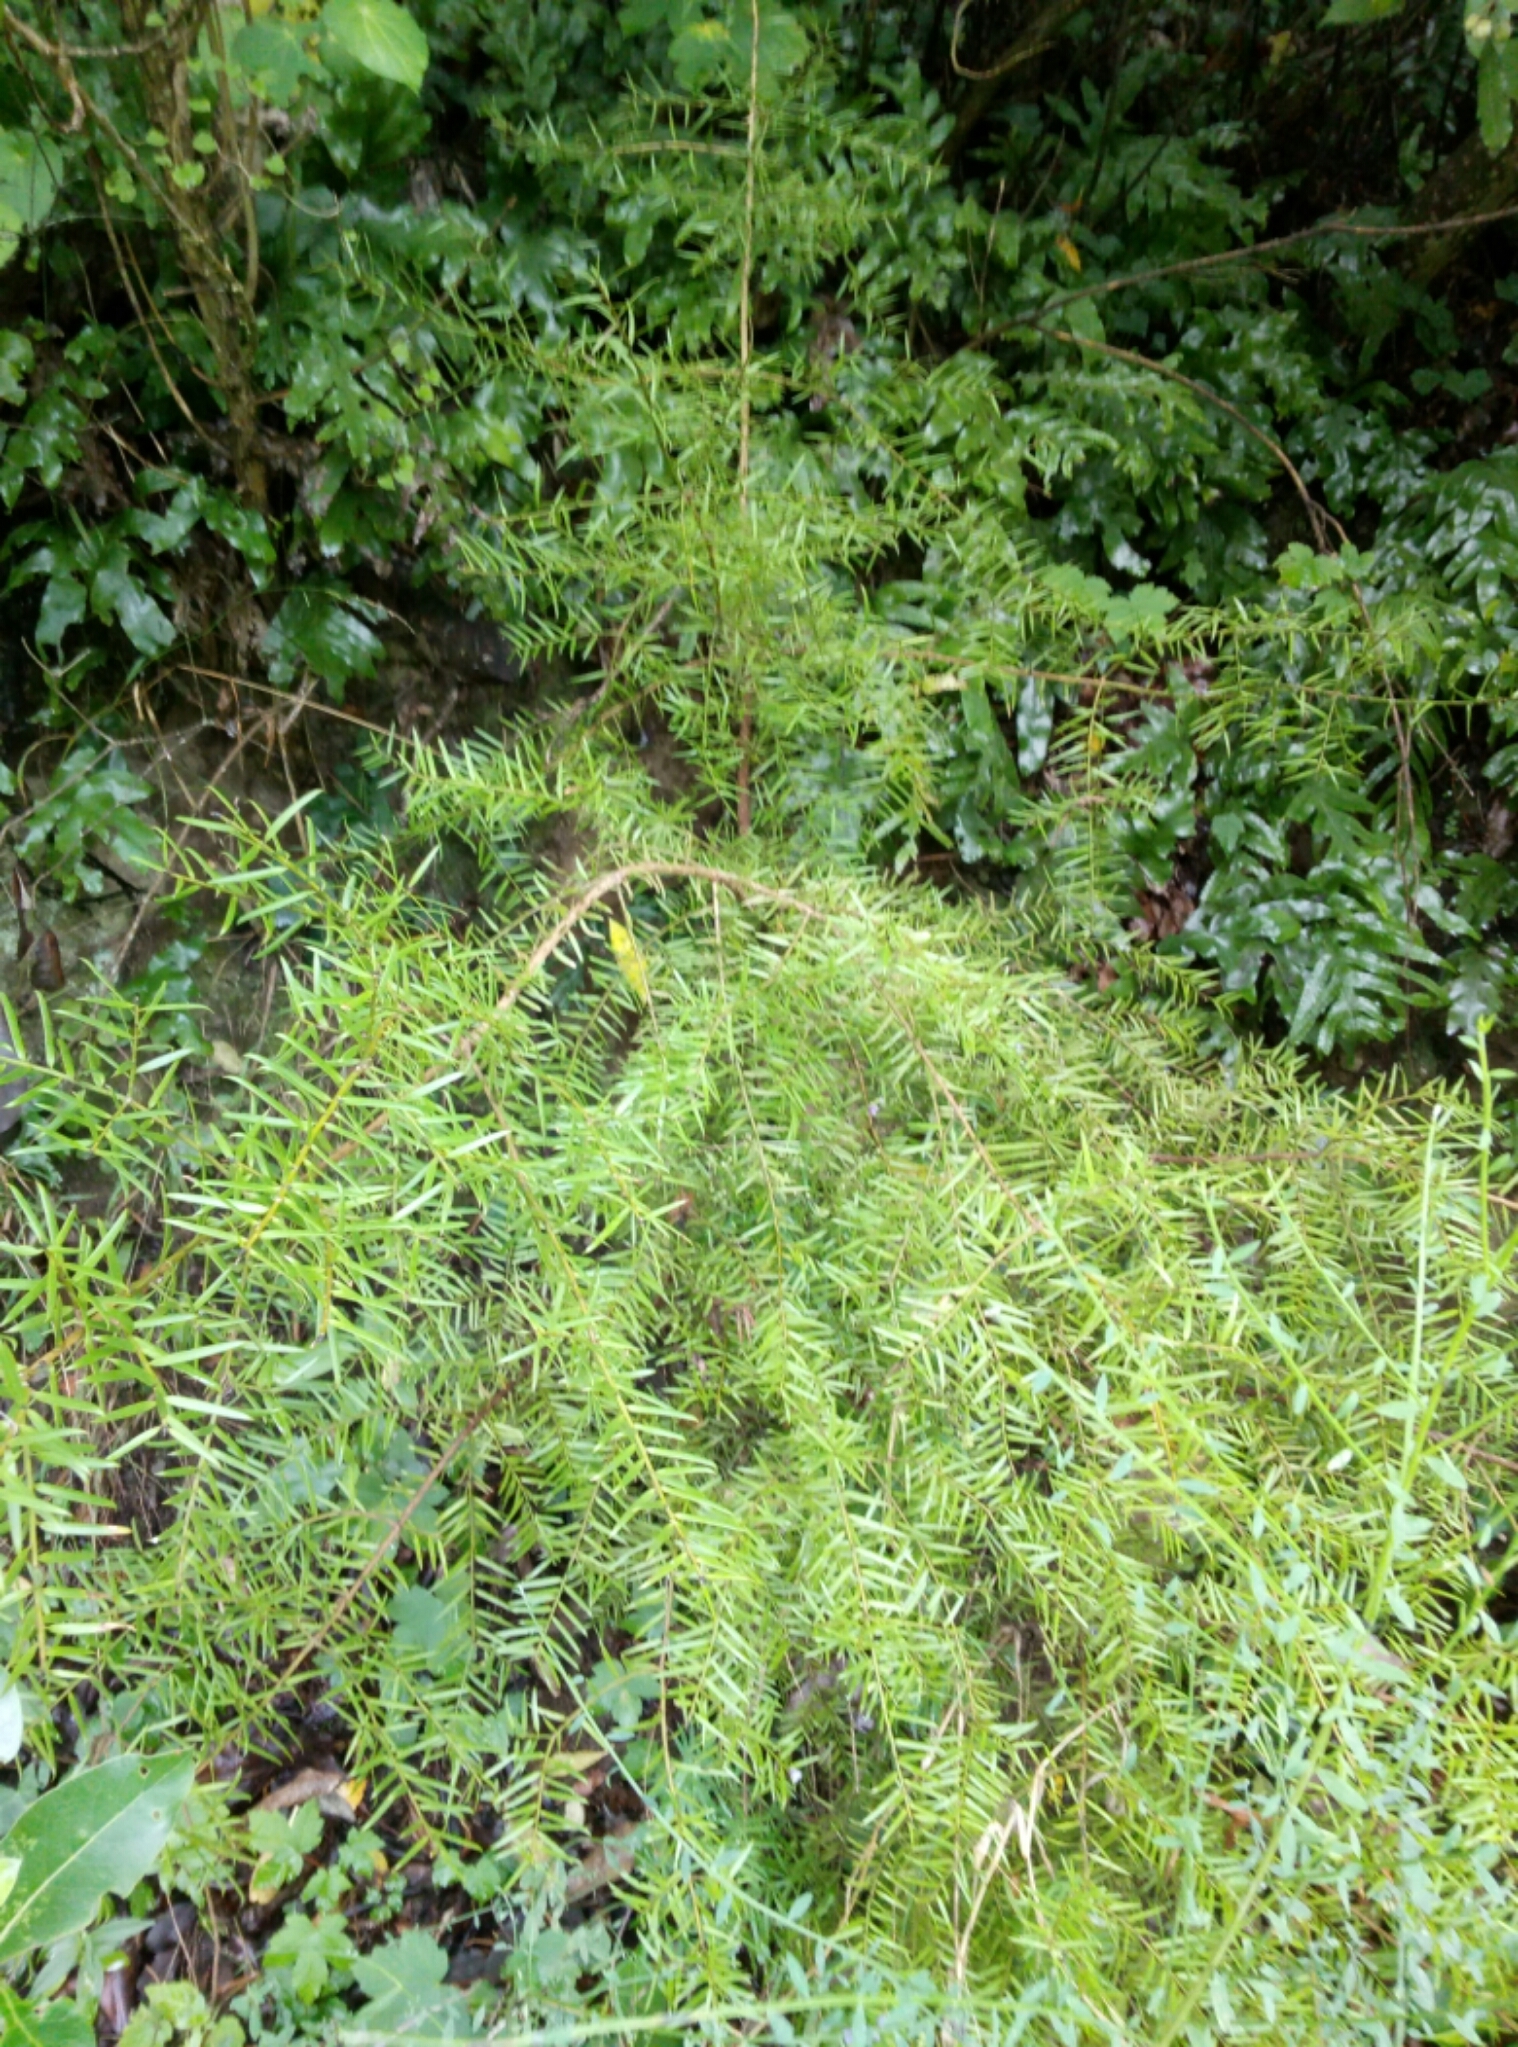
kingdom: Plantae
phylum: Tracheophyta
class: Pinopsida
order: Pinales
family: Podocarpaceae
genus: Podocarpus
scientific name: Podocarpus totara
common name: Totara
